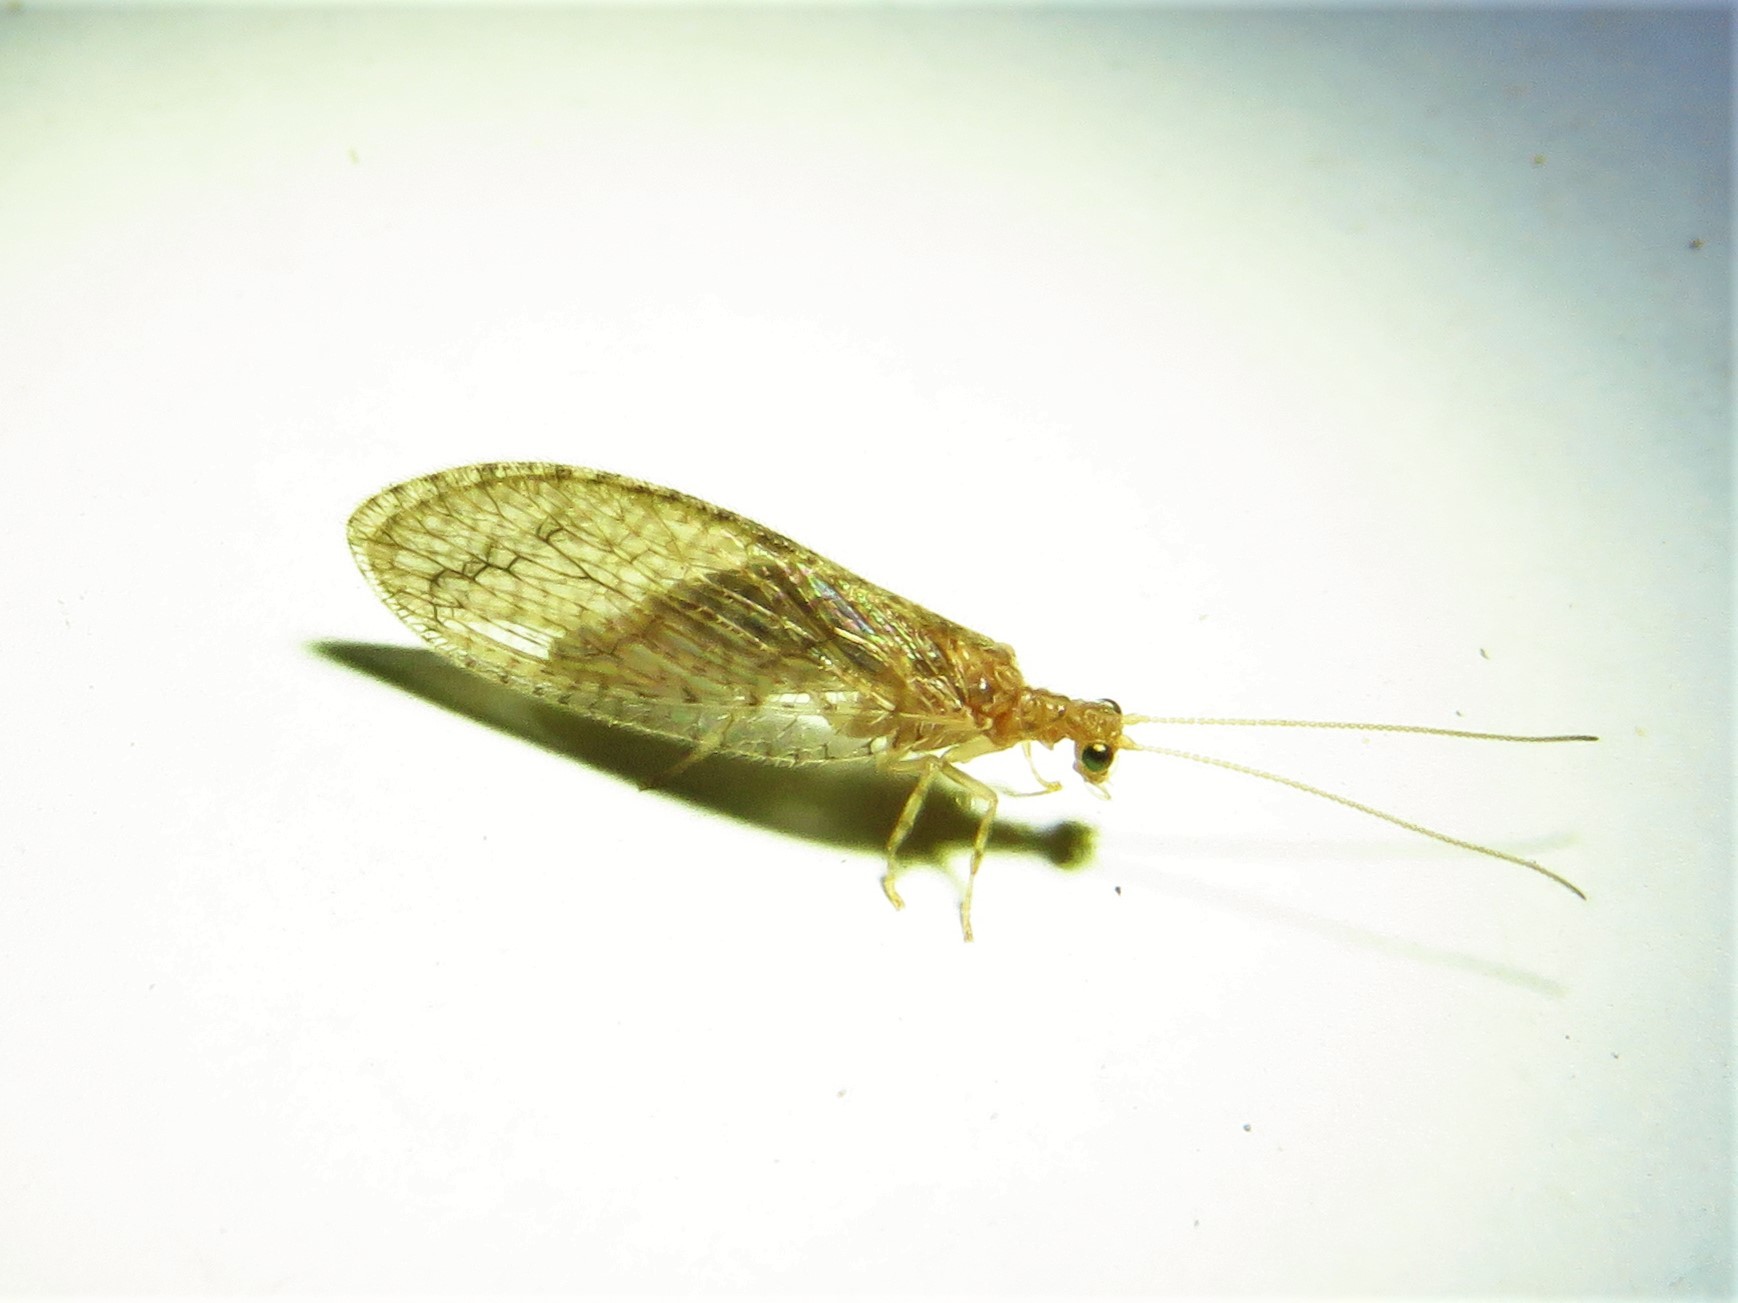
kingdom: Animalia
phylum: Arthropoda
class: Insecta
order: Neuroptera
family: Hemerobiidae
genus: Micromus
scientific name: Micromus posticus
